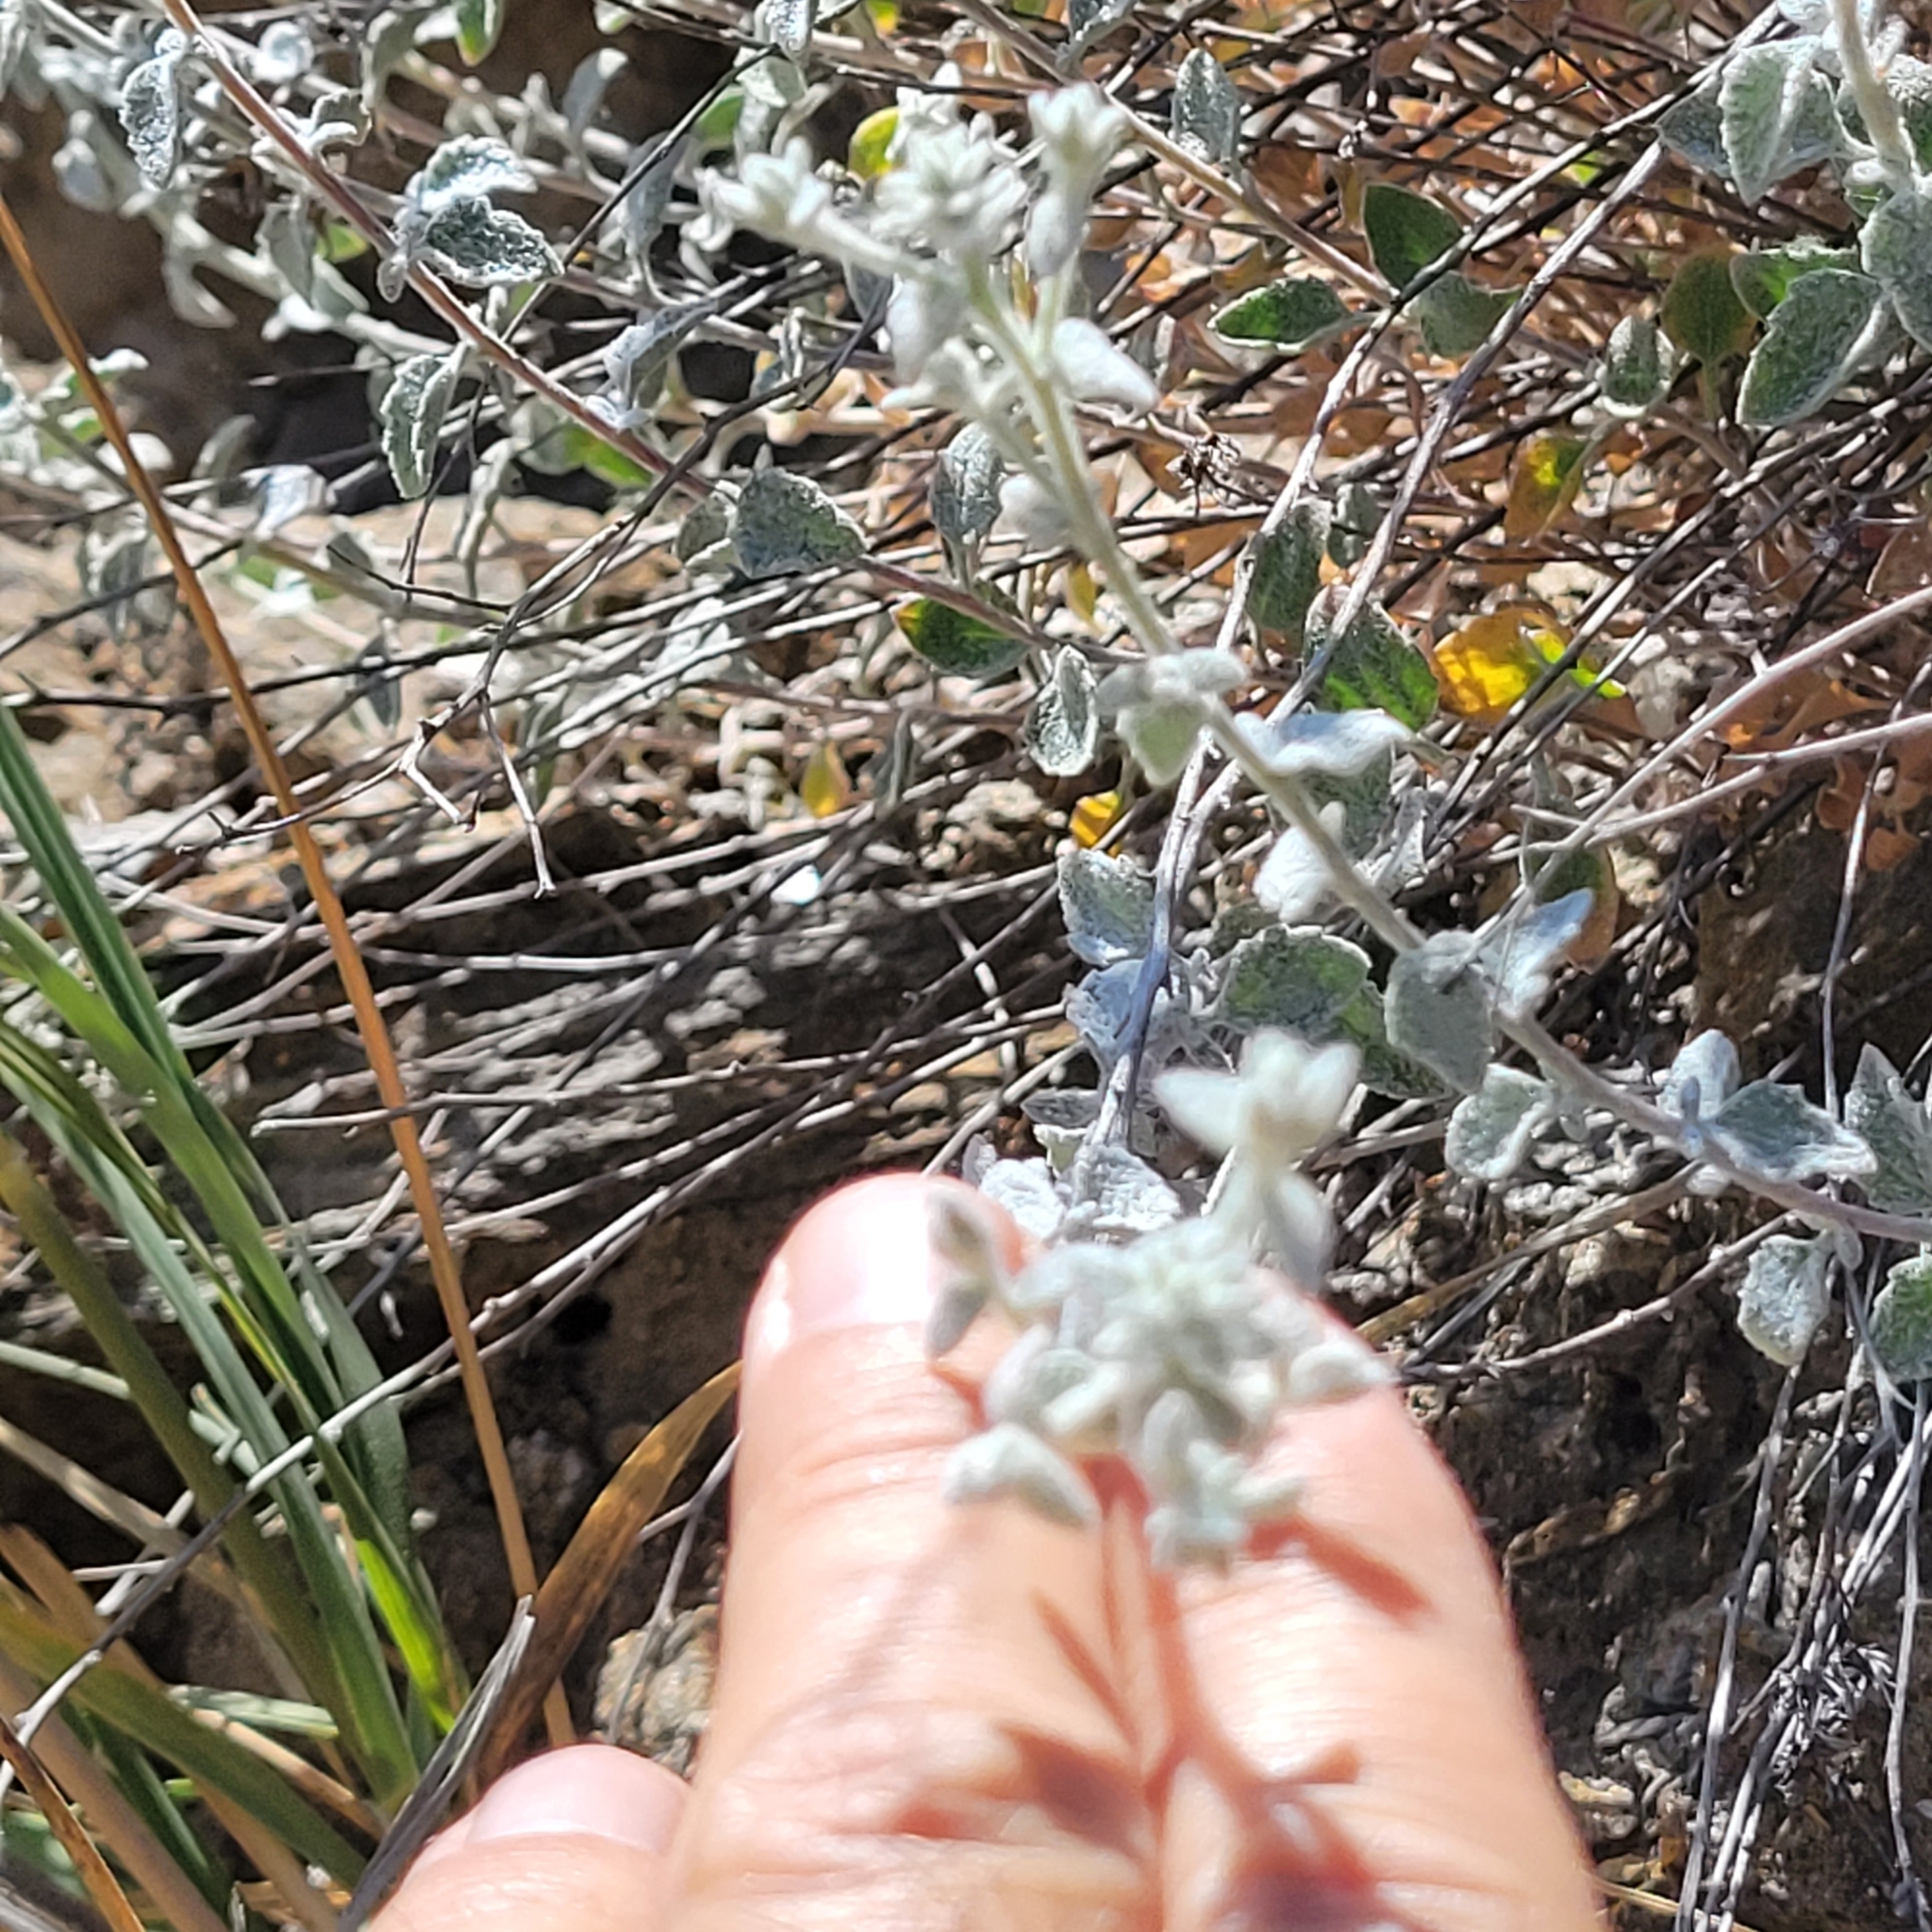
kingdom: Plantae
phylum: Tracheophyta
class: Magnoliopsida
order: Asterales
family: Asteraceae
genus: Brickellia
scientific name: Brickellia nevinii
